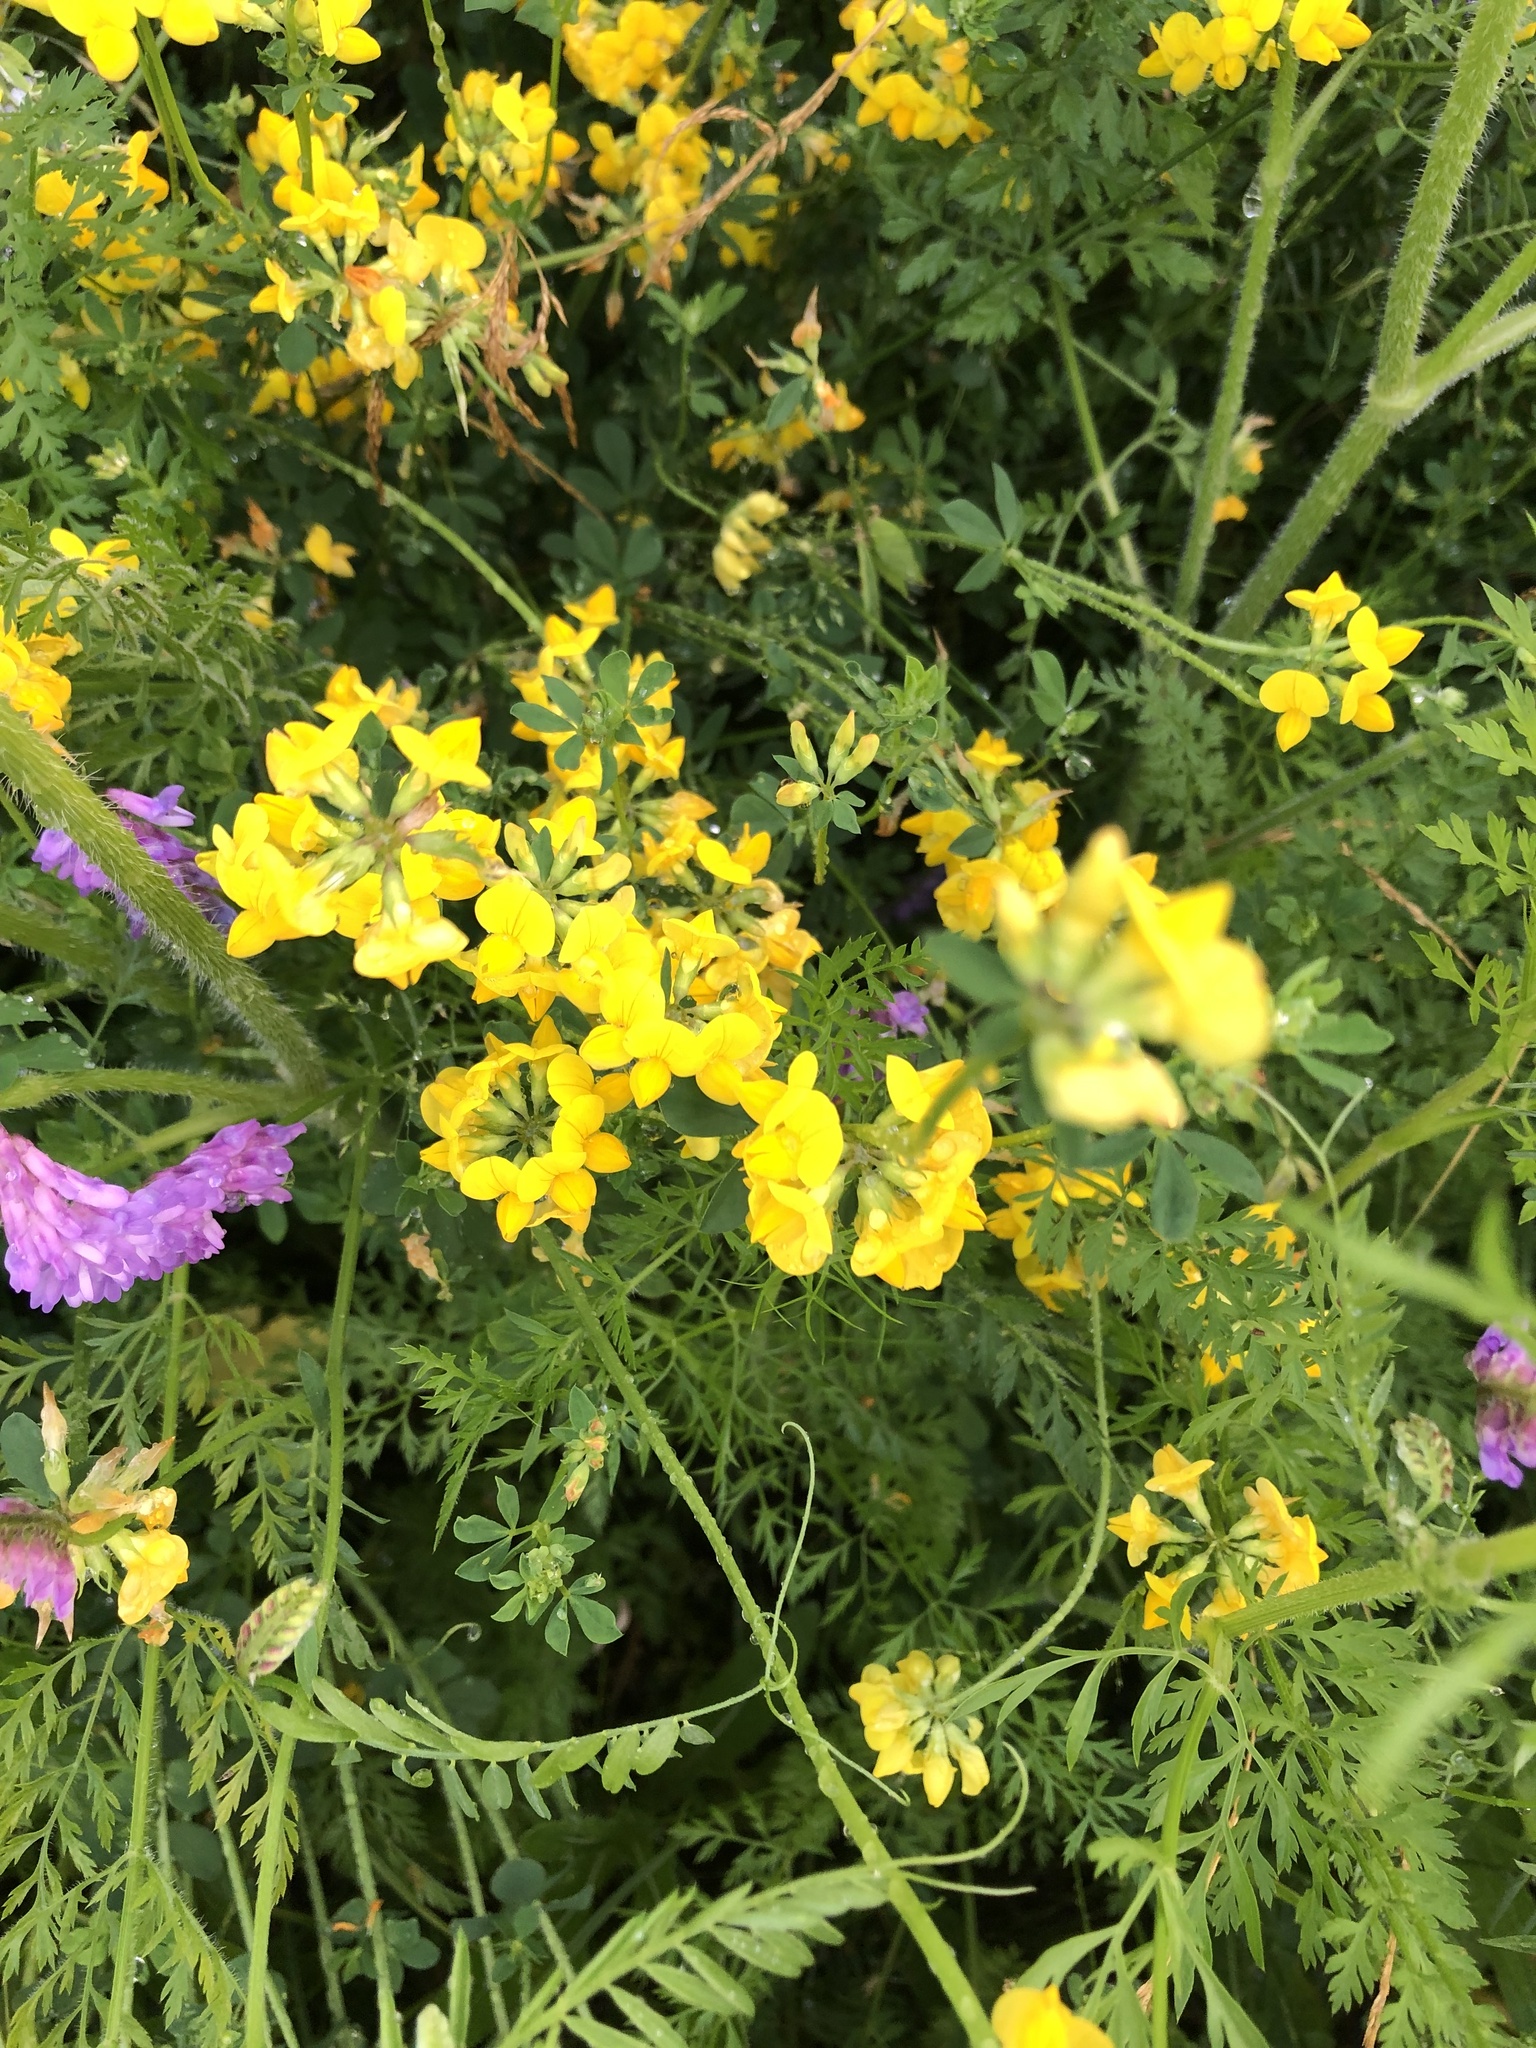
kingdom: Plantae
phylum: Tracheophyta
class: Magnoliopsida
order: Fabales
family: Fabaceae
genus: Lotus
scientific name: Lotus corniculatus
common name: Common bird's-foot-trefoil
